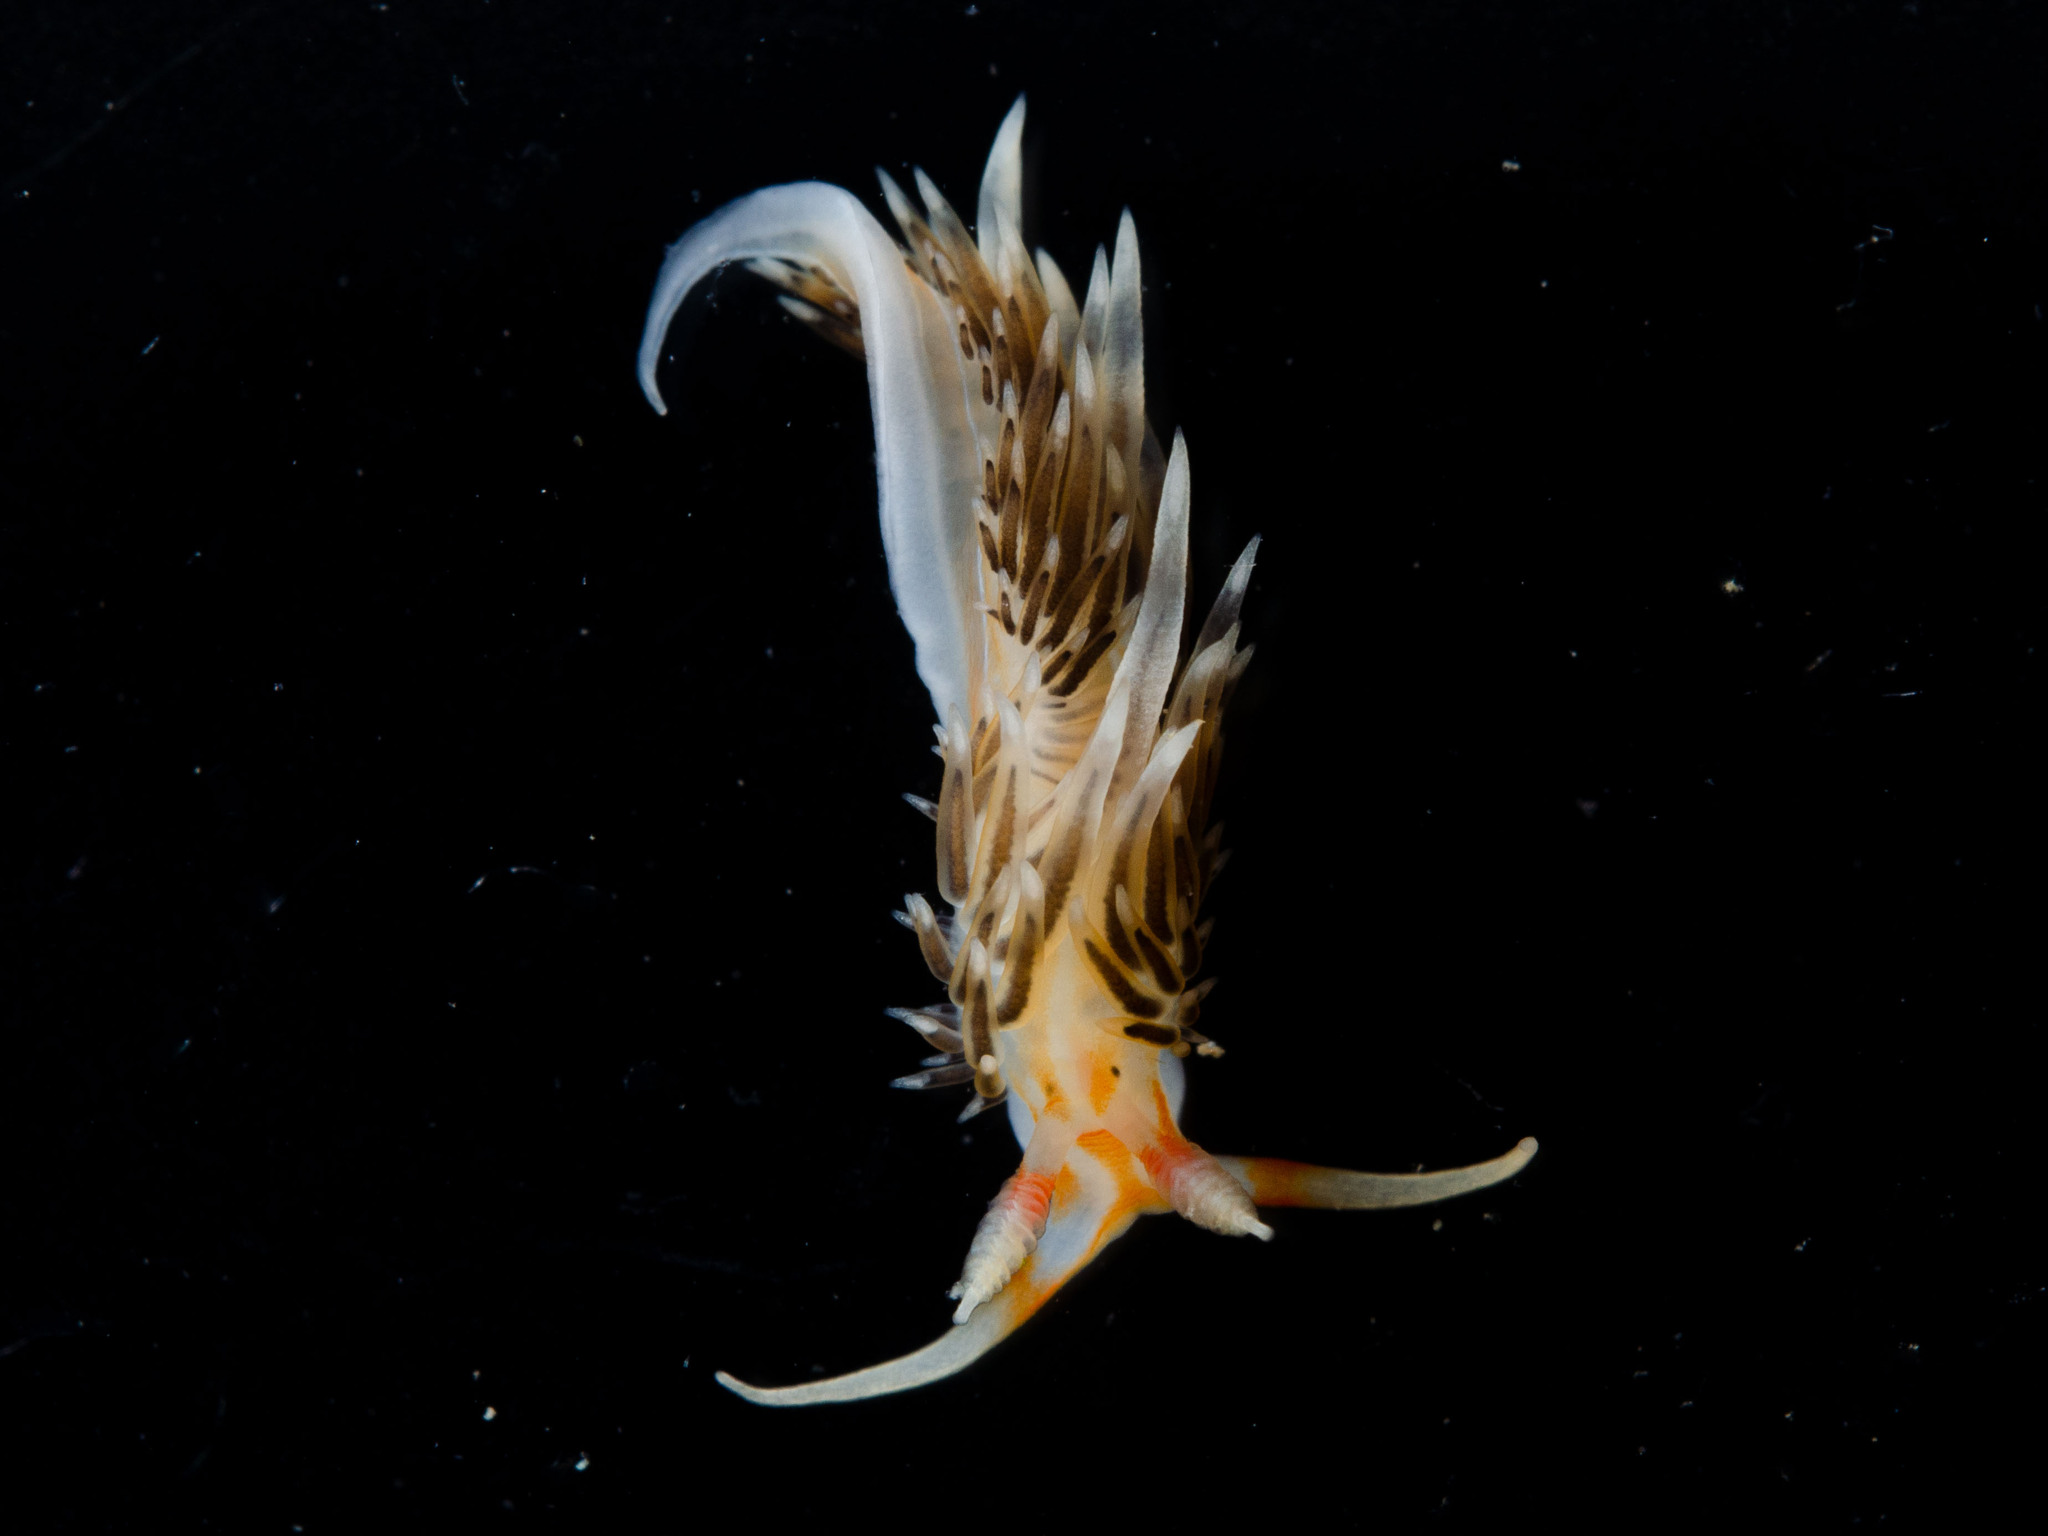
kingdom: Animalia
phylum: Mollusca
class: Gastropoda
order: Nudibranchia
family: Facelinidae
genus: Phidiana
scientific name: Phidiana lynceus
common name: Lynx nudibranch
